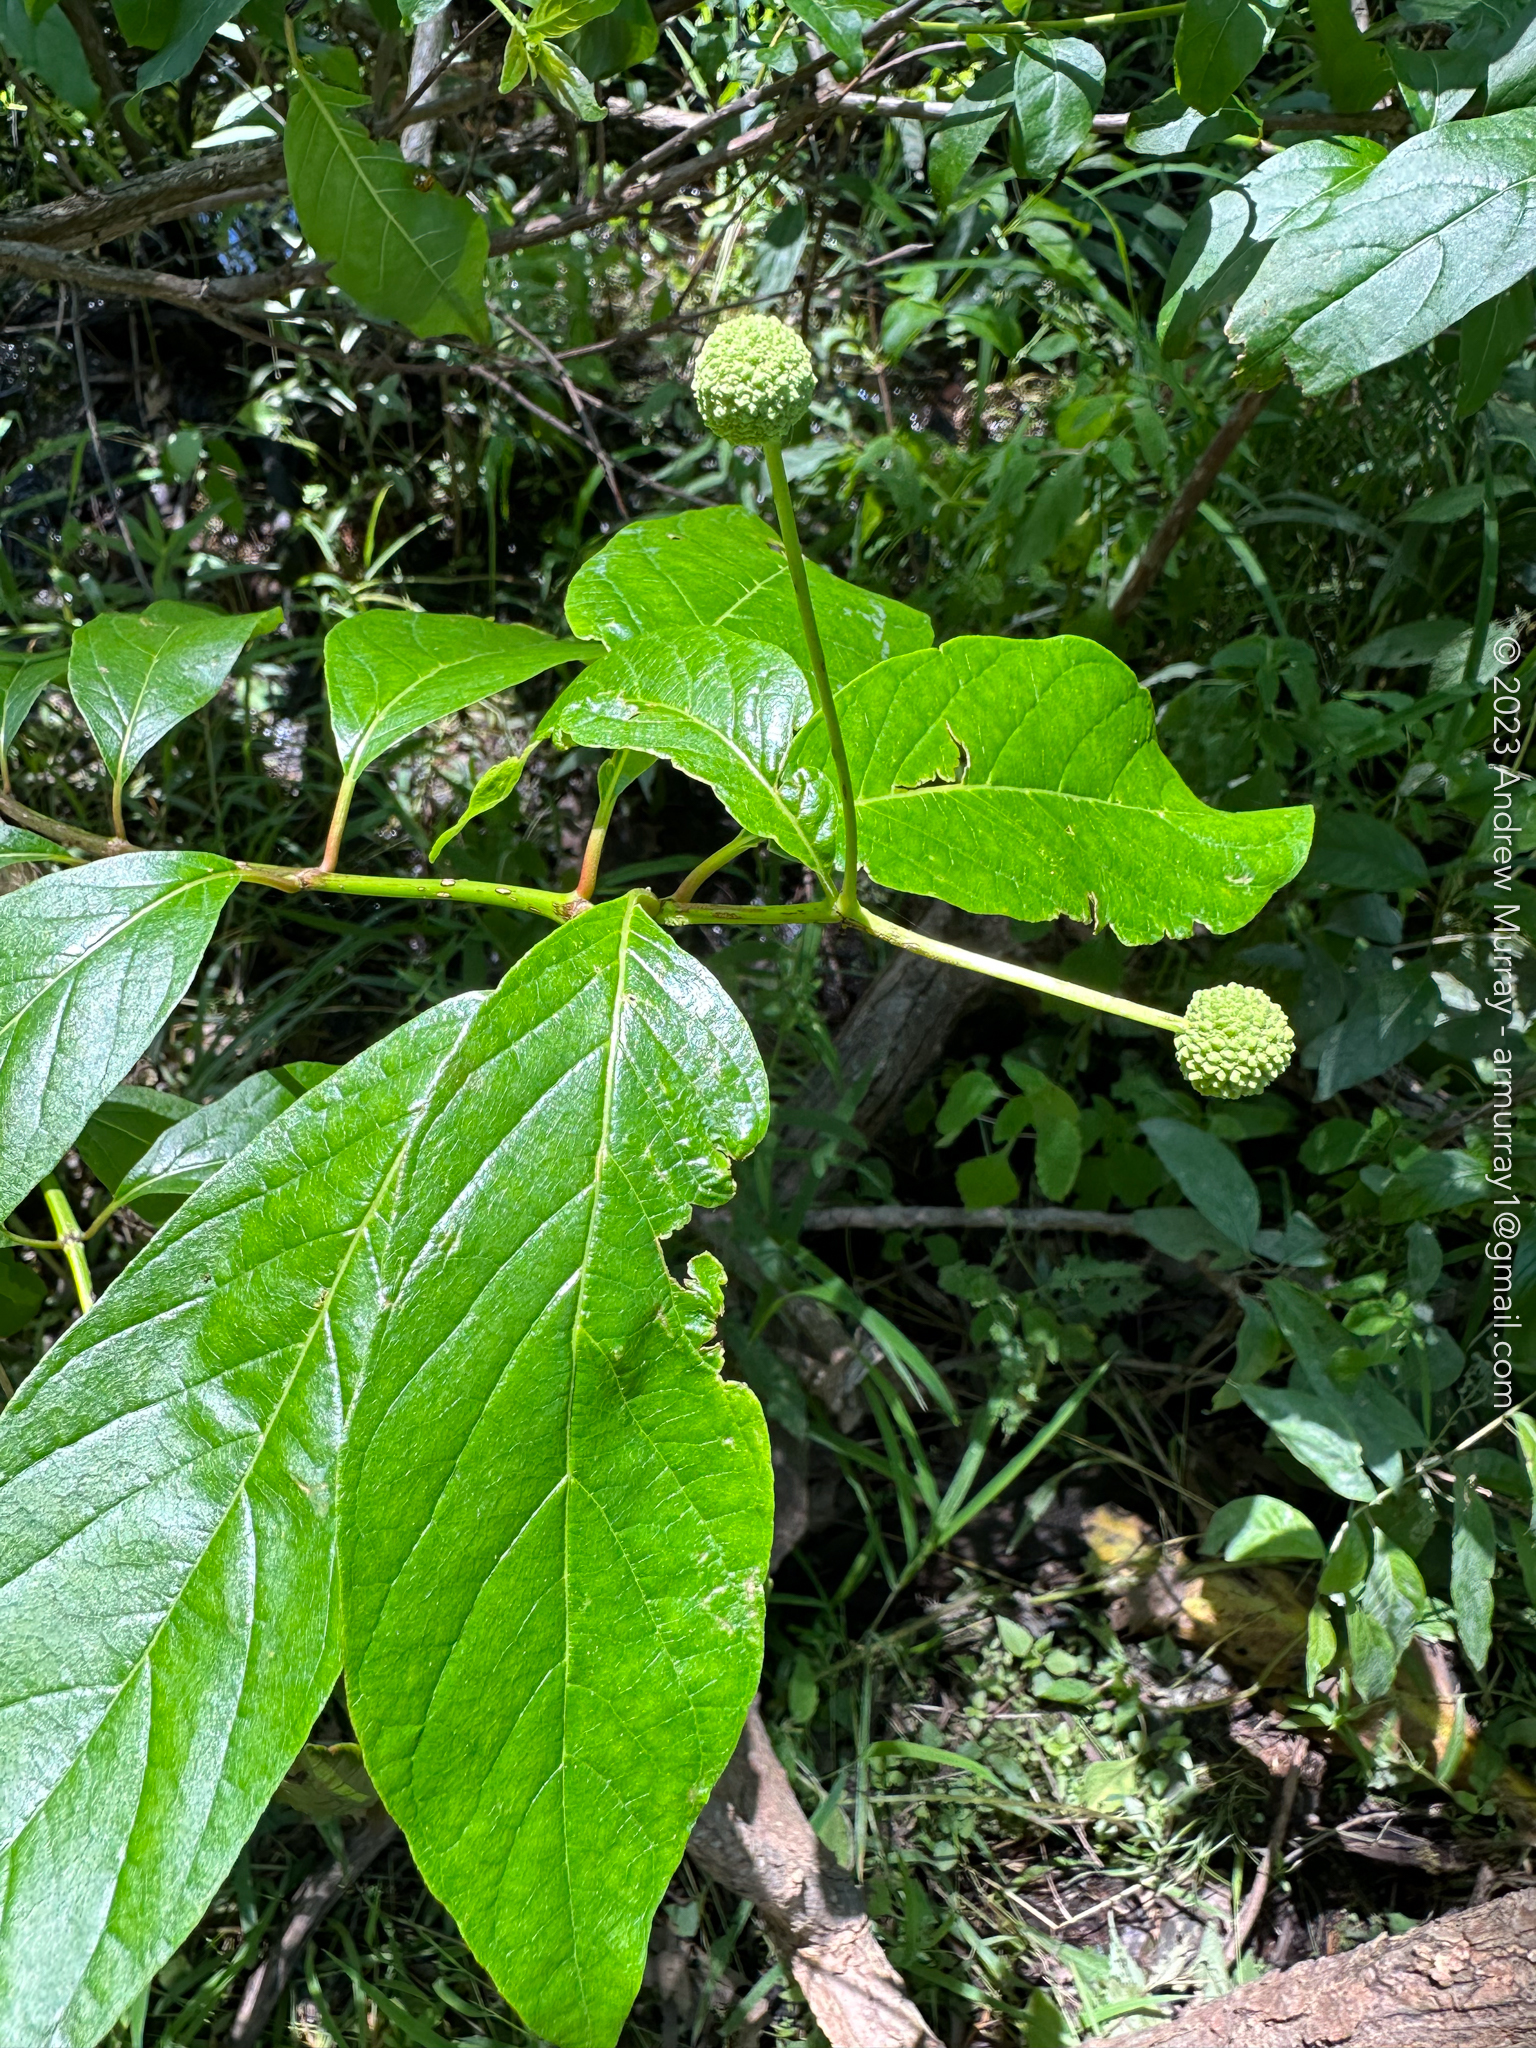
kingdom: Plantae
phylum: Tracheophyta
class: Magnoliopsida
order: Gentianales
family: Rubiaceae
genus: Cephalanthus
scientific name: Cephalanthus occidentalis
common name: Button-willow
